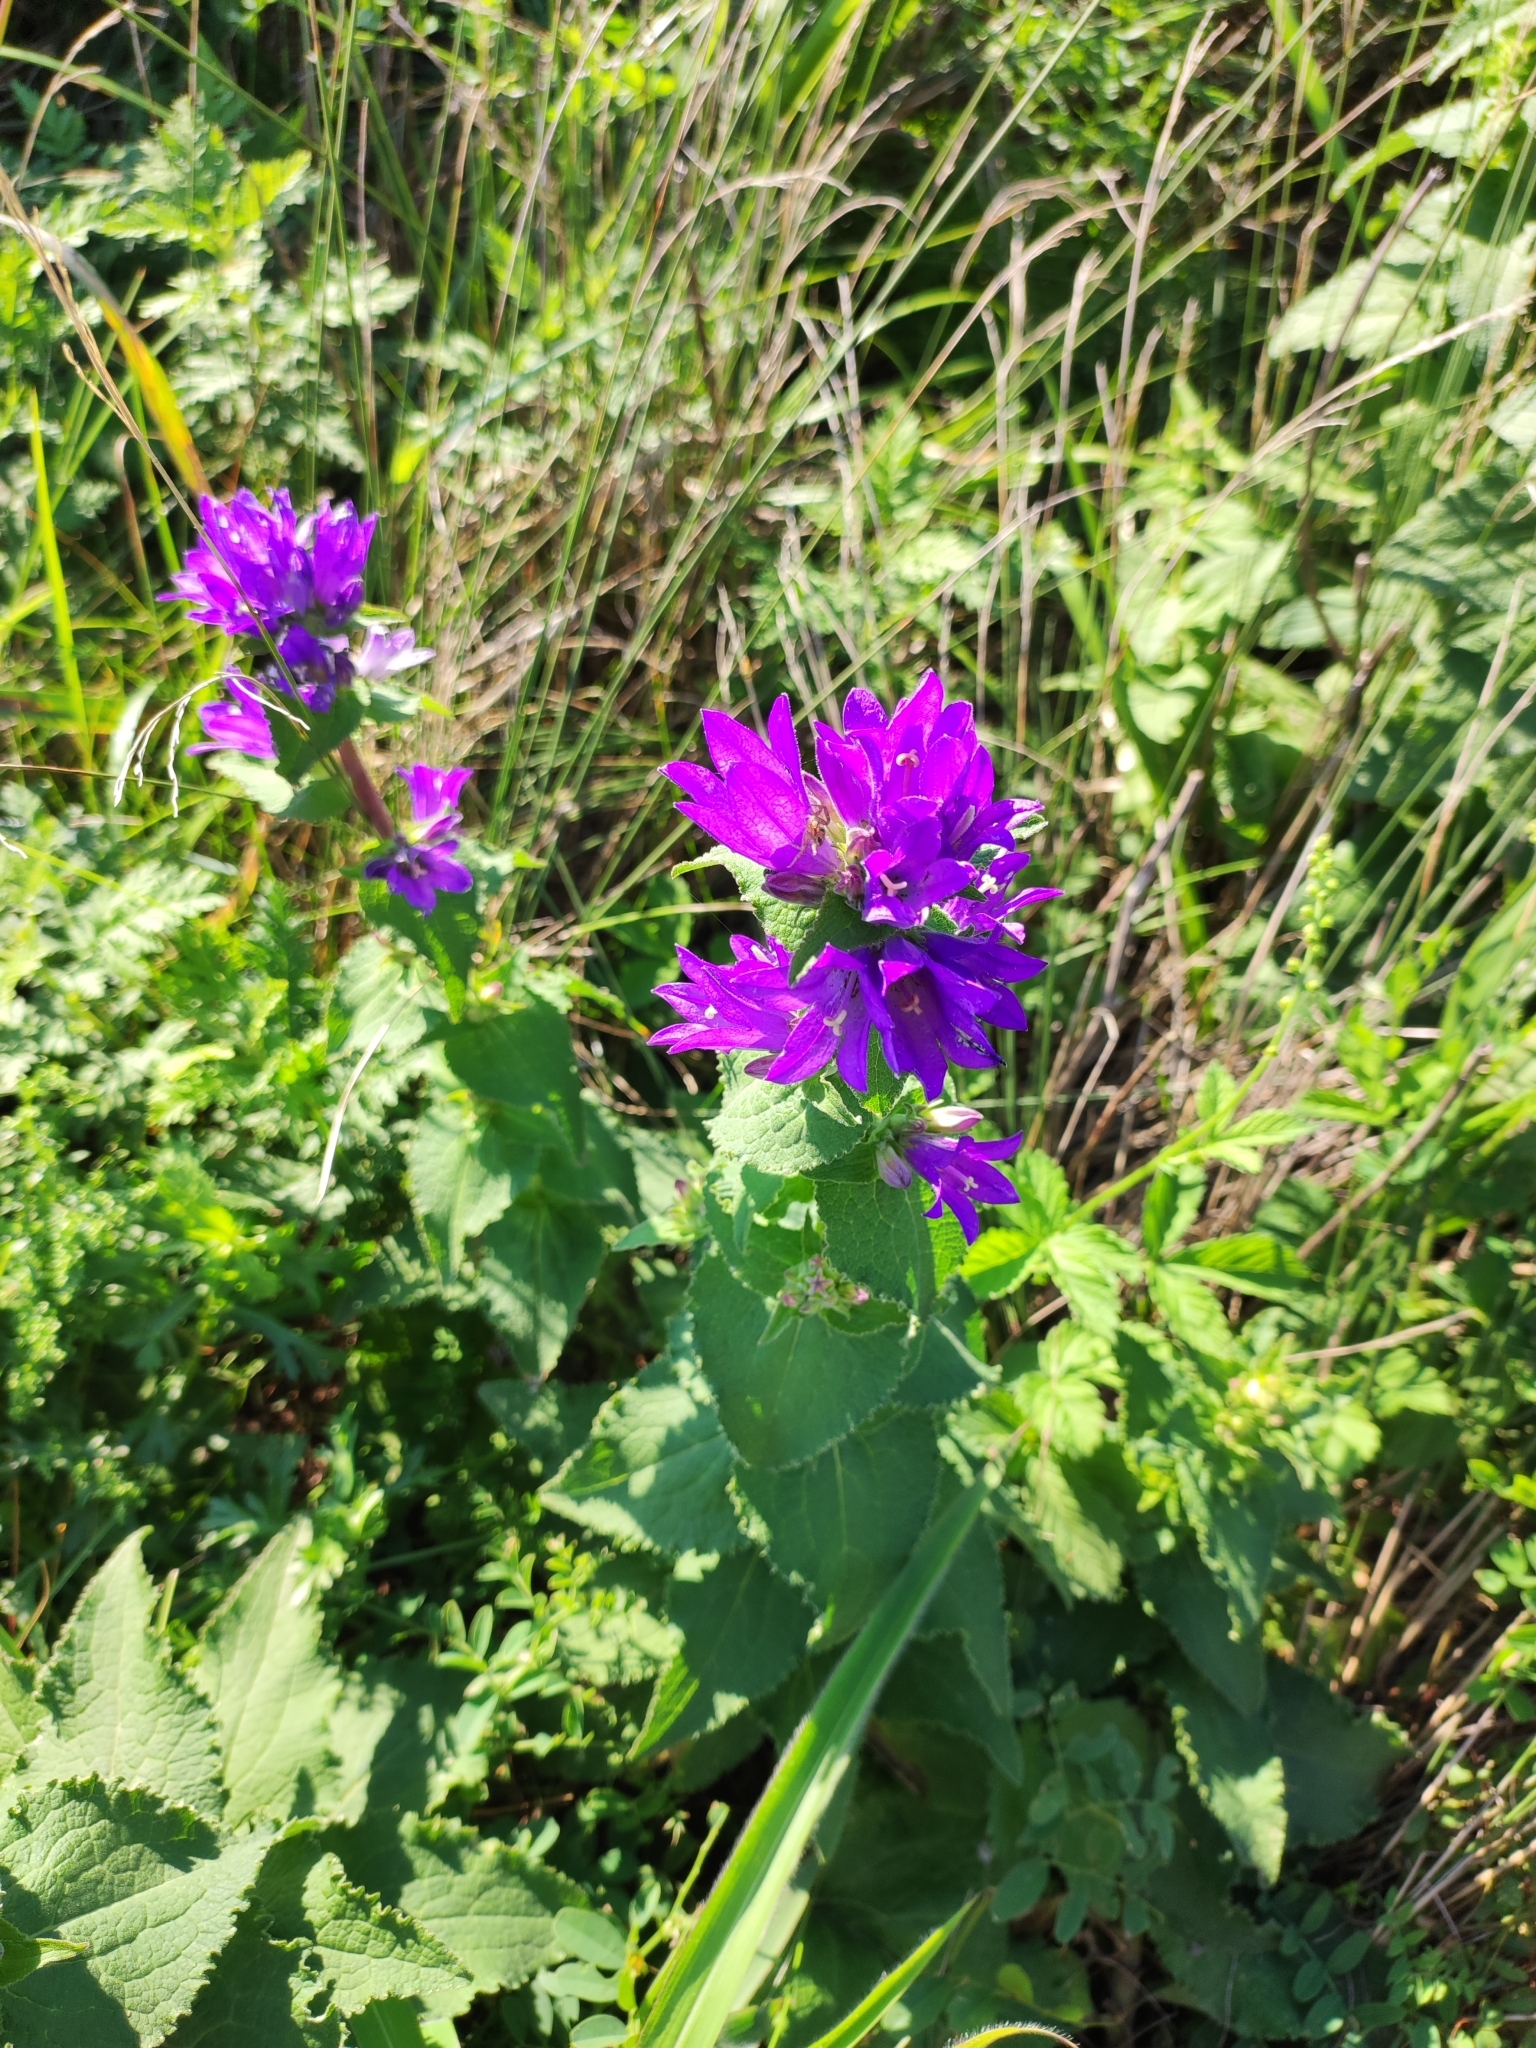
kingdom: Plantae
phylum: Tracheophyta
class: Magnoliopsida
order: Asterales
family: Campanulaceae
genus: Campanula
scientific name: Campanula glomerata
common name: Clustered bellflower
